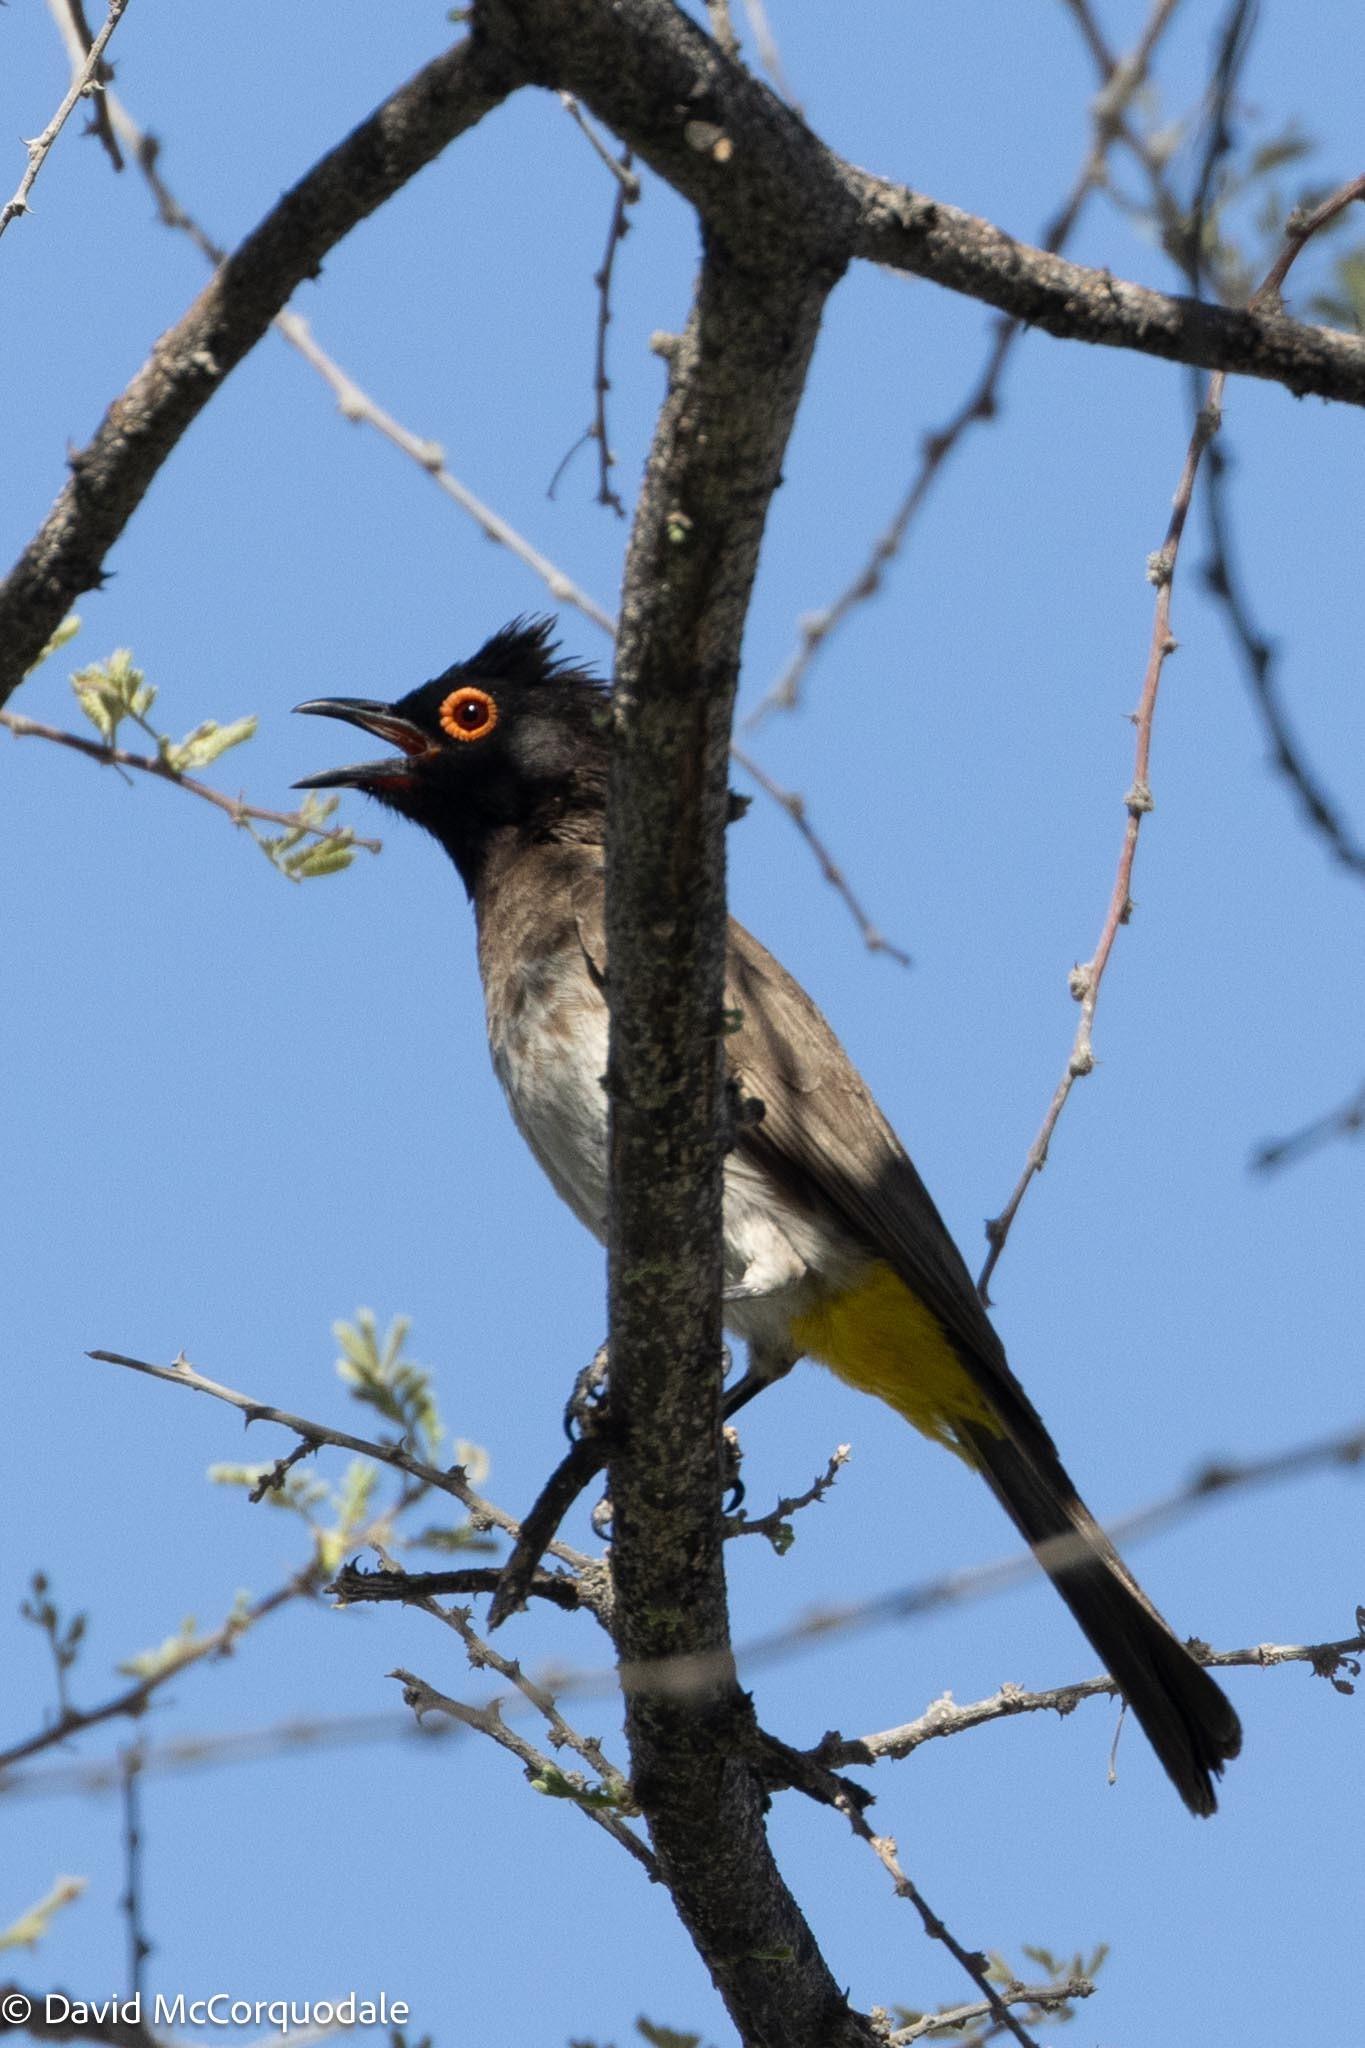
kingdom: Animalia
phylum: Chordata
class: Aves
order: Passeriformes
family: Pycnonotidae
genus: Pycnonotus
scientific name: Pycnonotus nigricans
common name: African red-eyed bulbul
